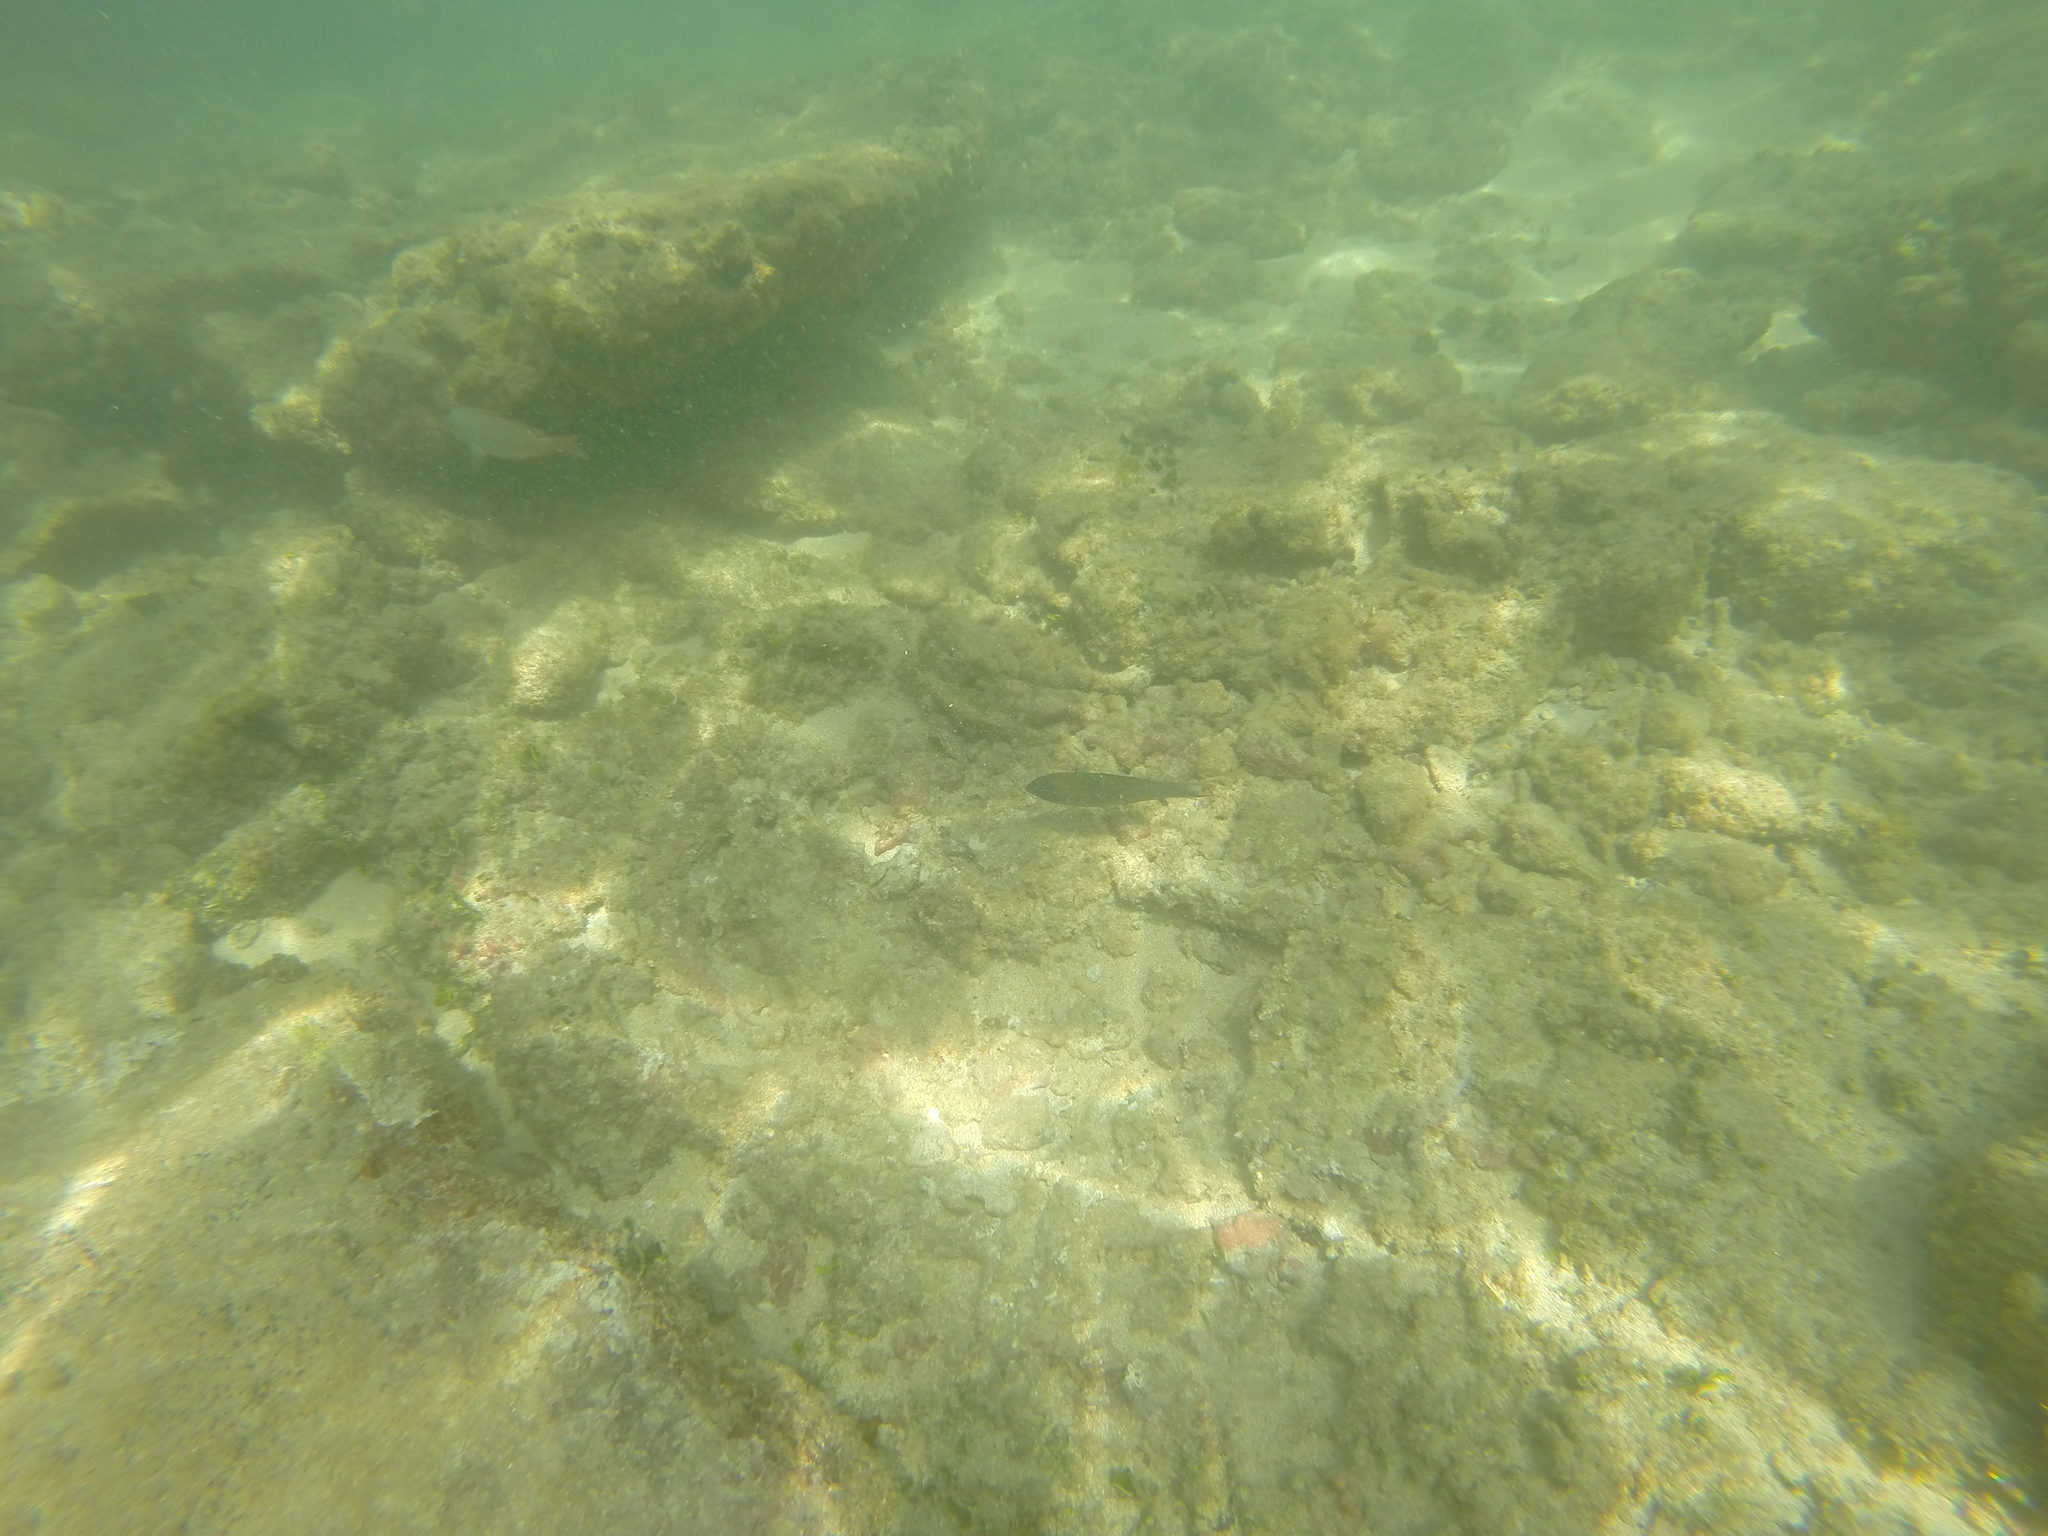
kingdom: Animalia
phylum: Chordata
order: Perciformes
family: Labridae
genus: Thalassoma
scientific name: Thalassoma duperrey
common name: Saddle wrasse
